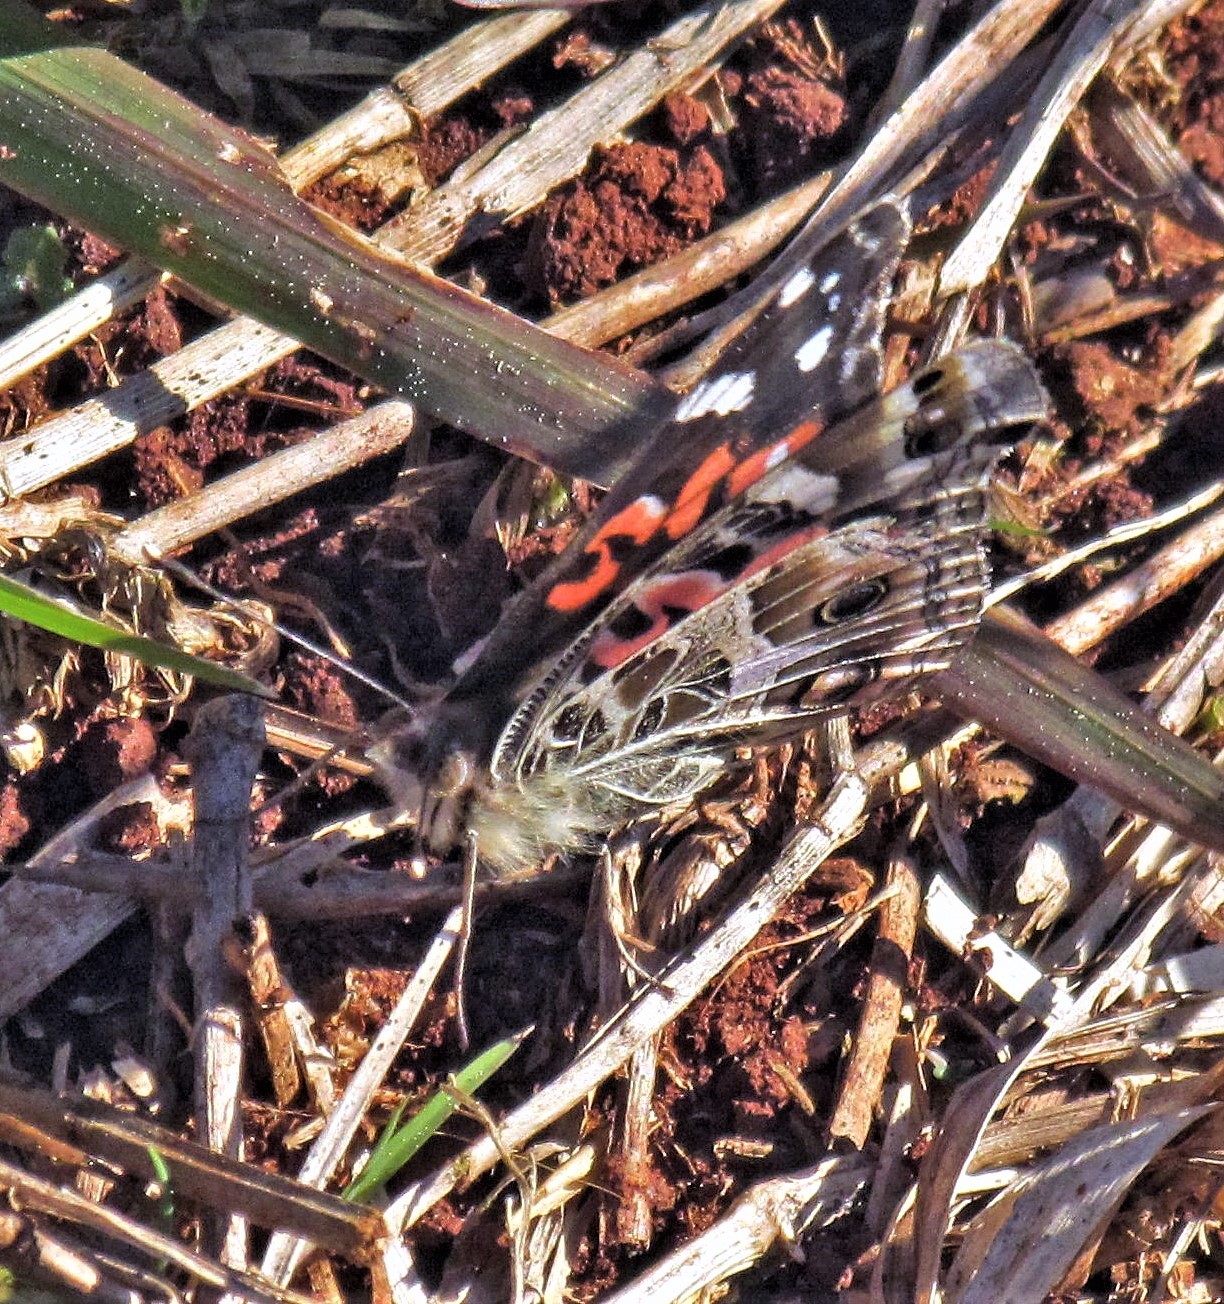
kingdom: Animalia
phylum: Arthropoda
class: Insecta
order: Lepidoptera
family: Nymphalidae
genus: Vanessa
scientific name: Vanessa braziliensis
